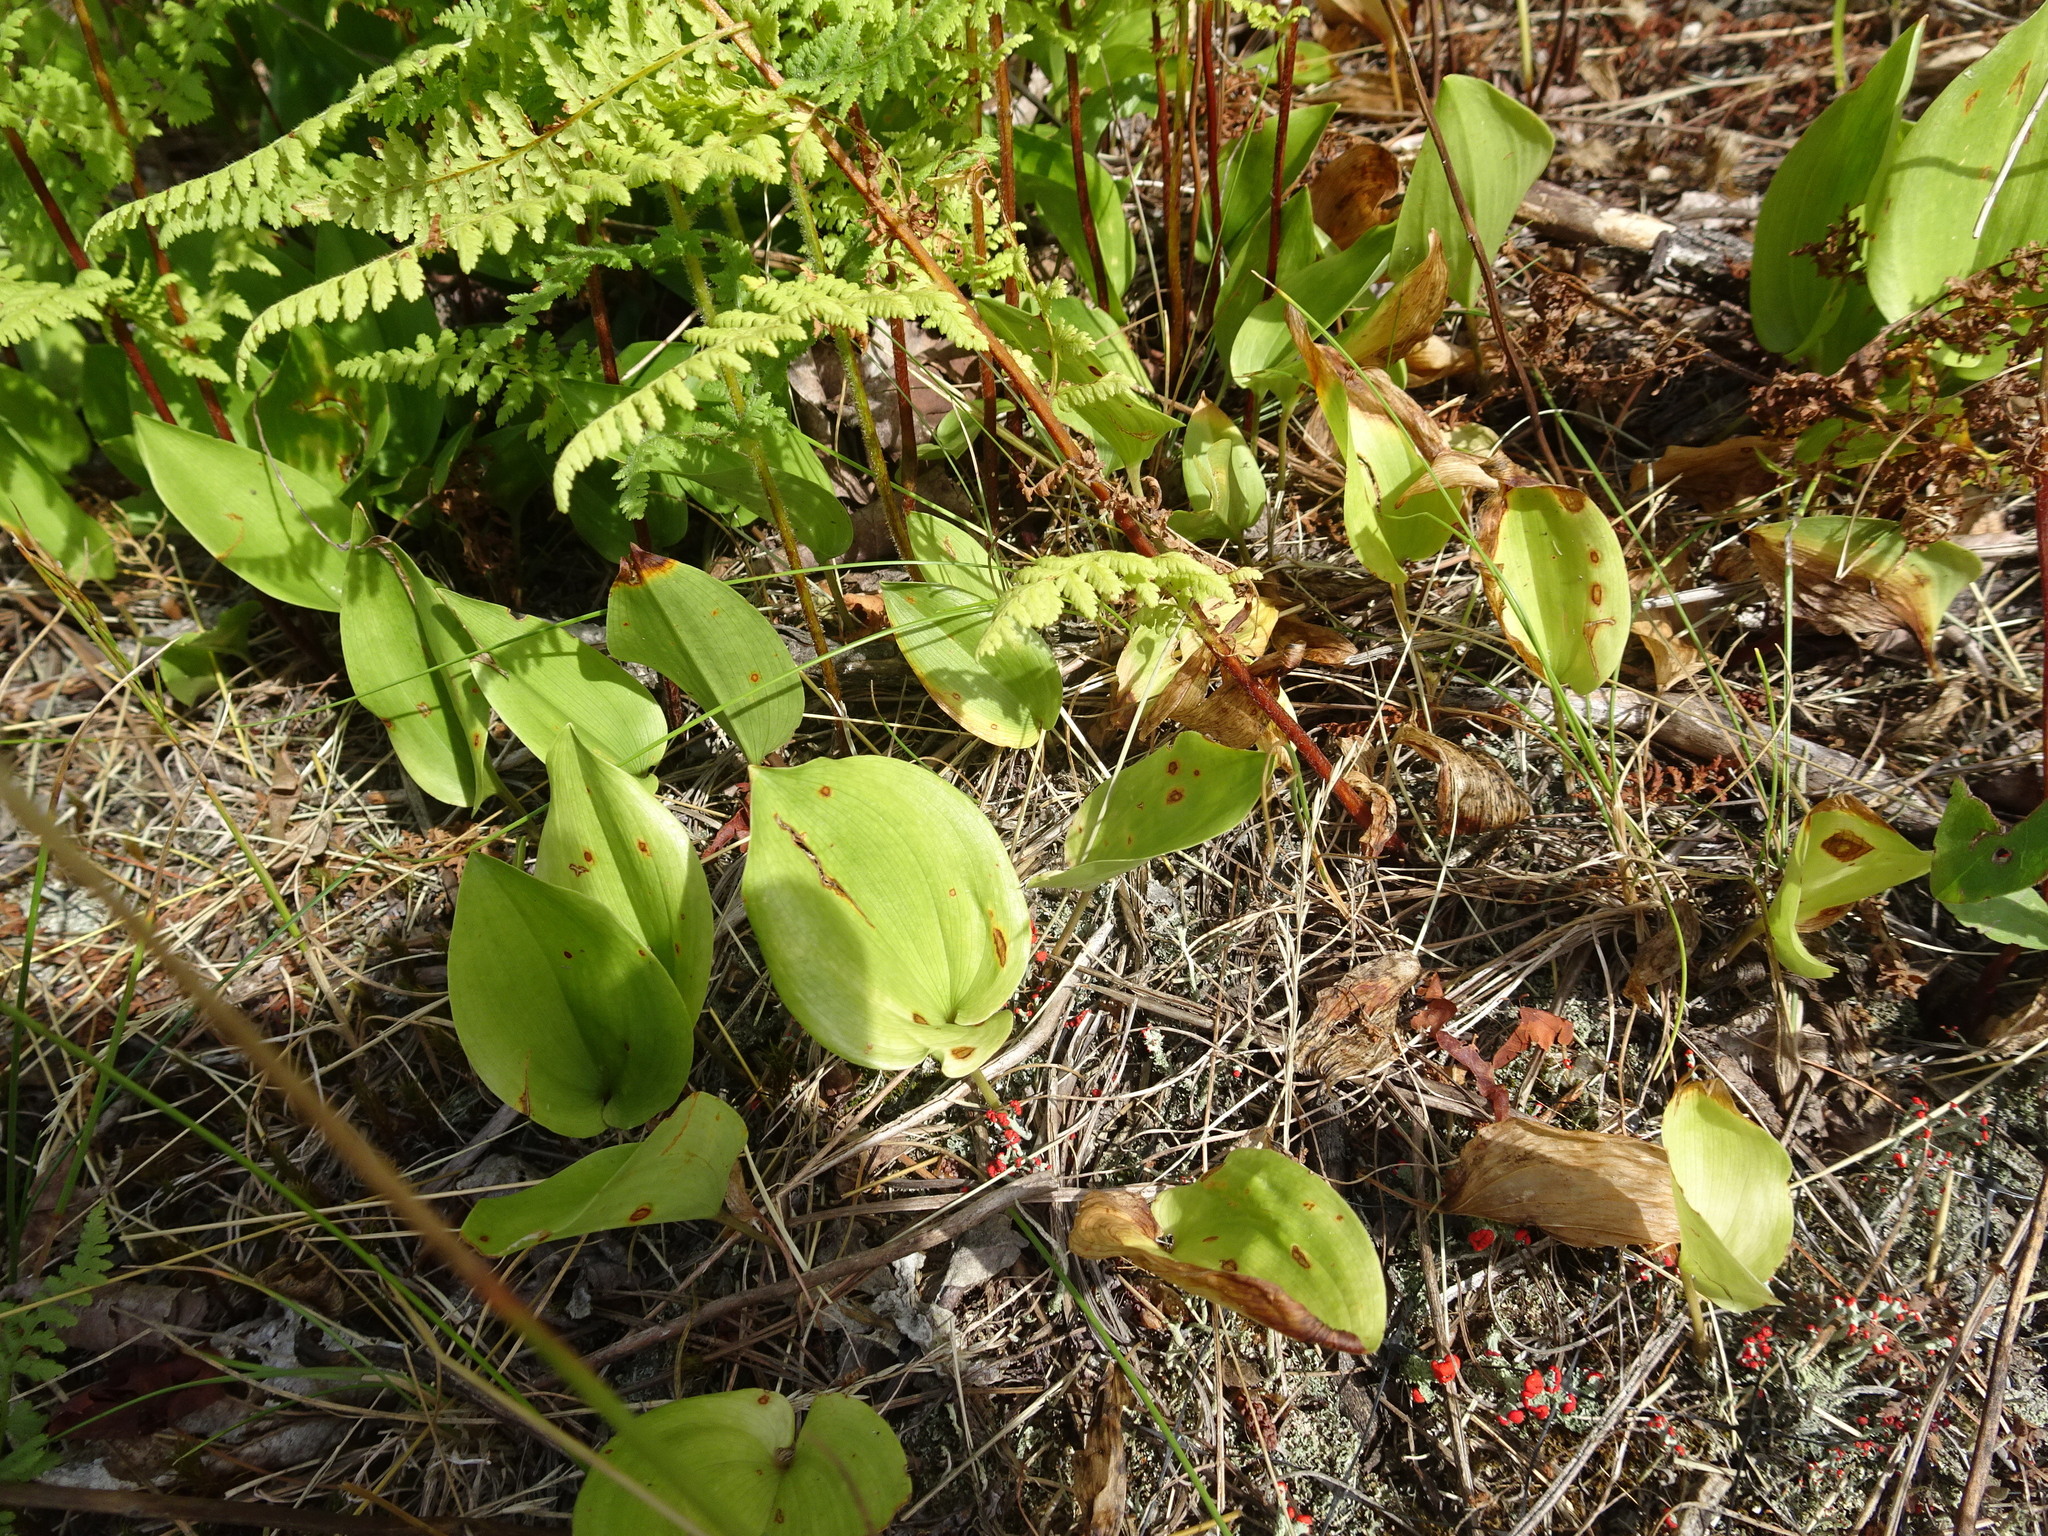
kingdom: Plantae
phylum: Tracheophyta
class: Liliopsida
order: Asparagales
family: Asparagaceae
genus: Maianthemum
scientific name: Maianthemum canadense
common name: False lily-of-the-valley
